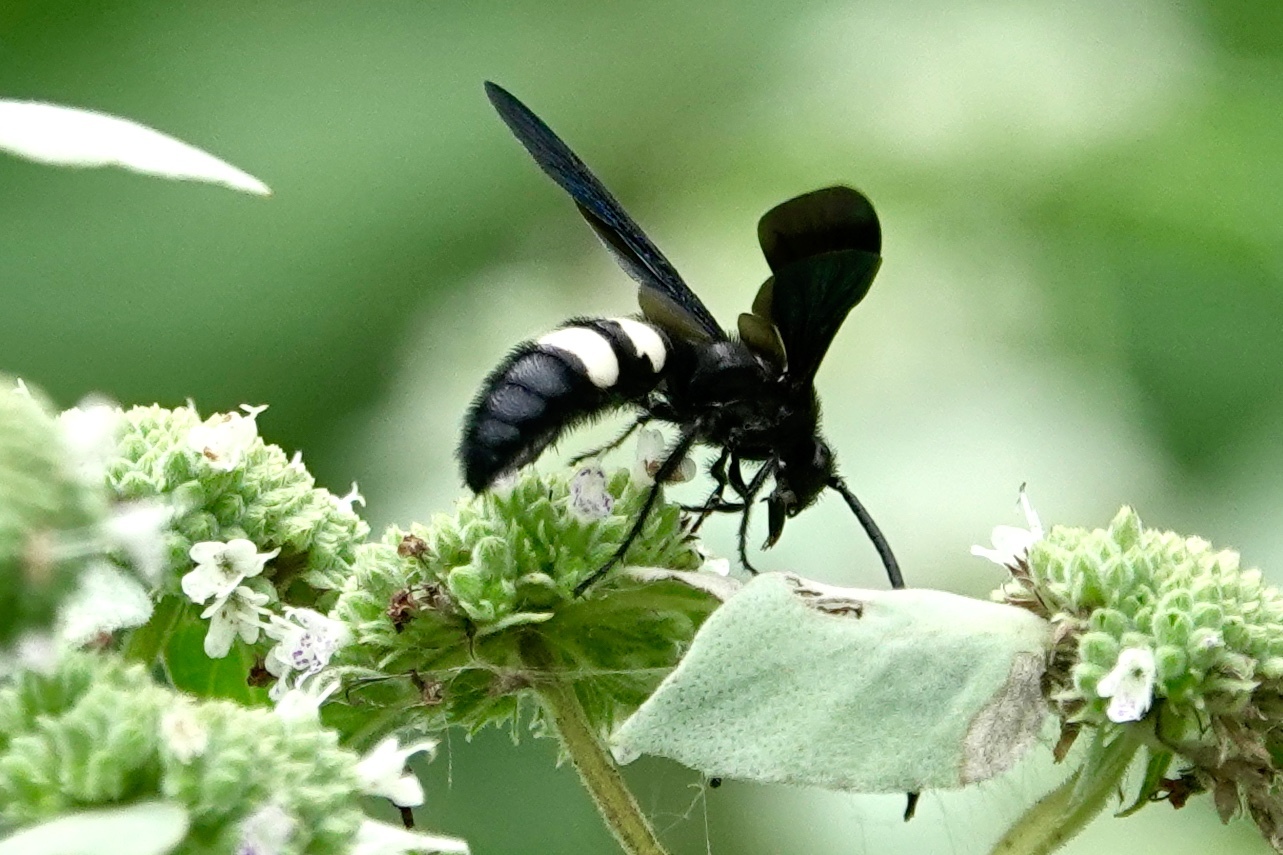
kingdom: Animalia
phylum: Arthropoda
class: Insecta
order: Hymenoptera
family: Scoliidae
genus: Scolia
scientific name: Scolia bicincta
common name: Double-banded scoliid wasp
